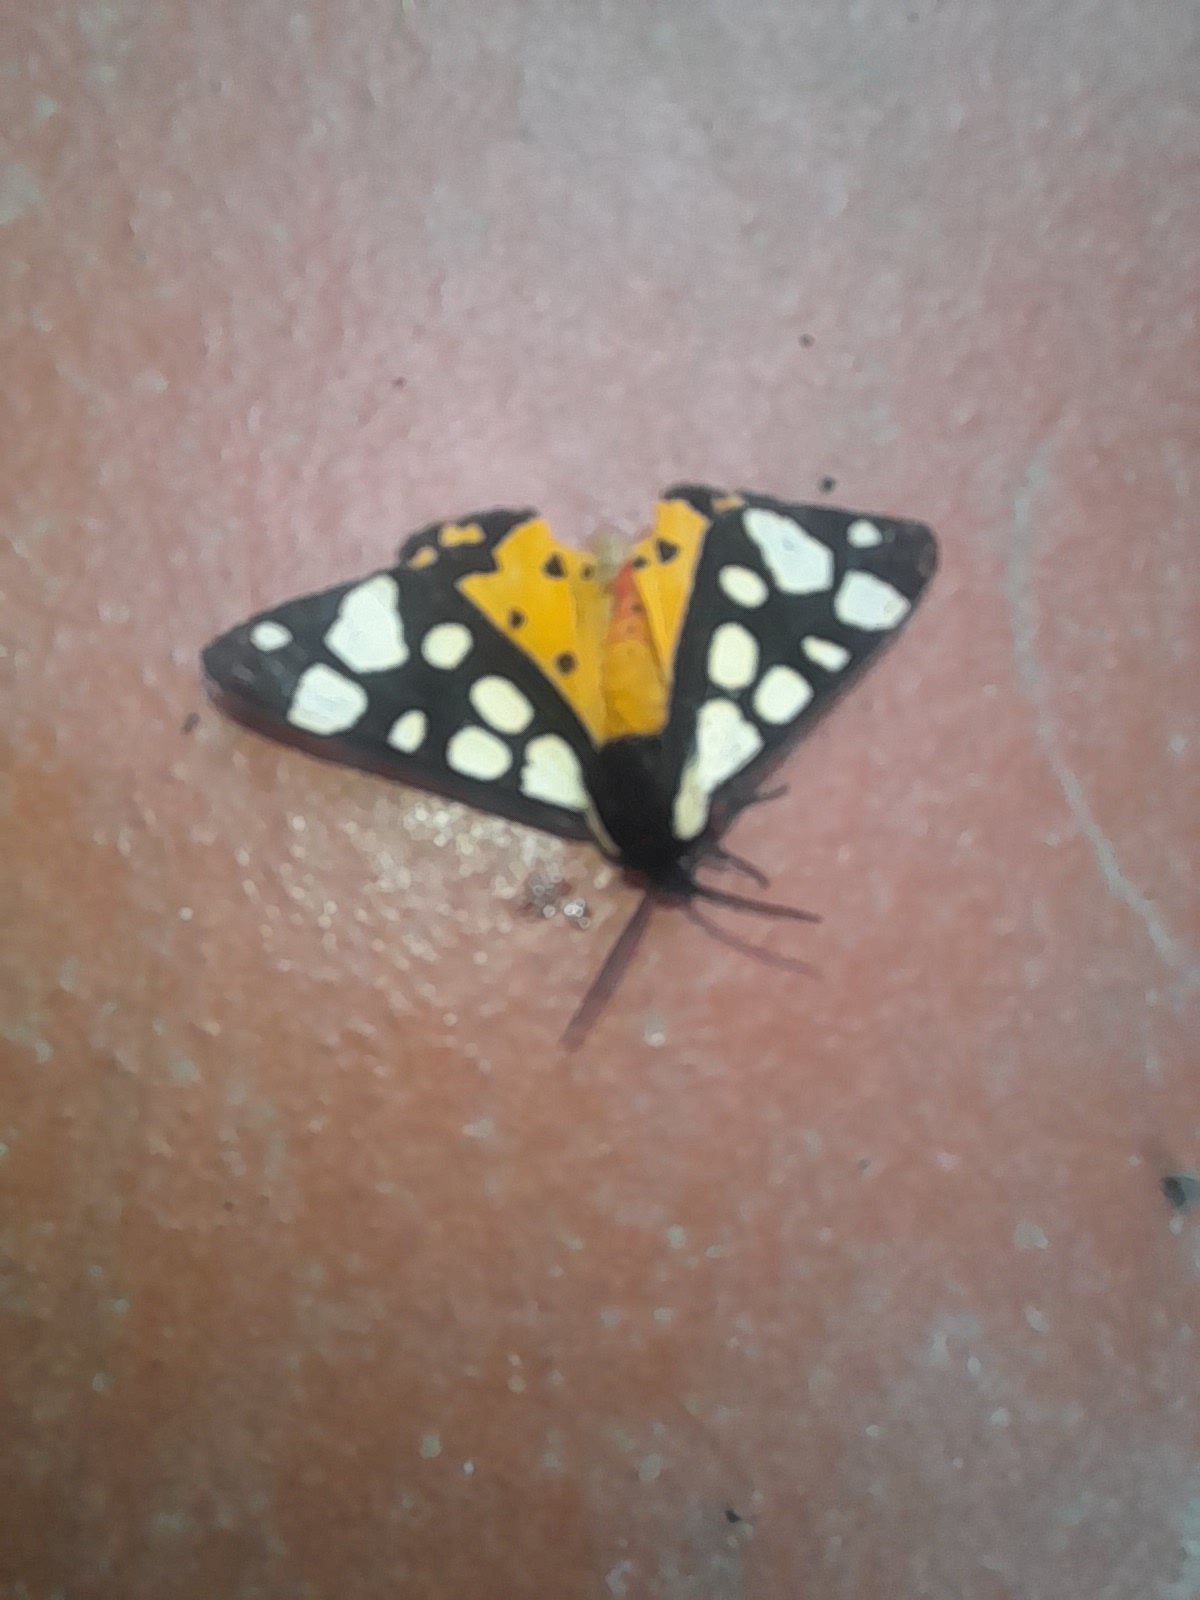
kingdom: Animalia
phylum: Arthropoda
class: Insecta
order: Lepidoptera
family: Erebidae
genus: Epicallia
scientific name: Epicallia villica
